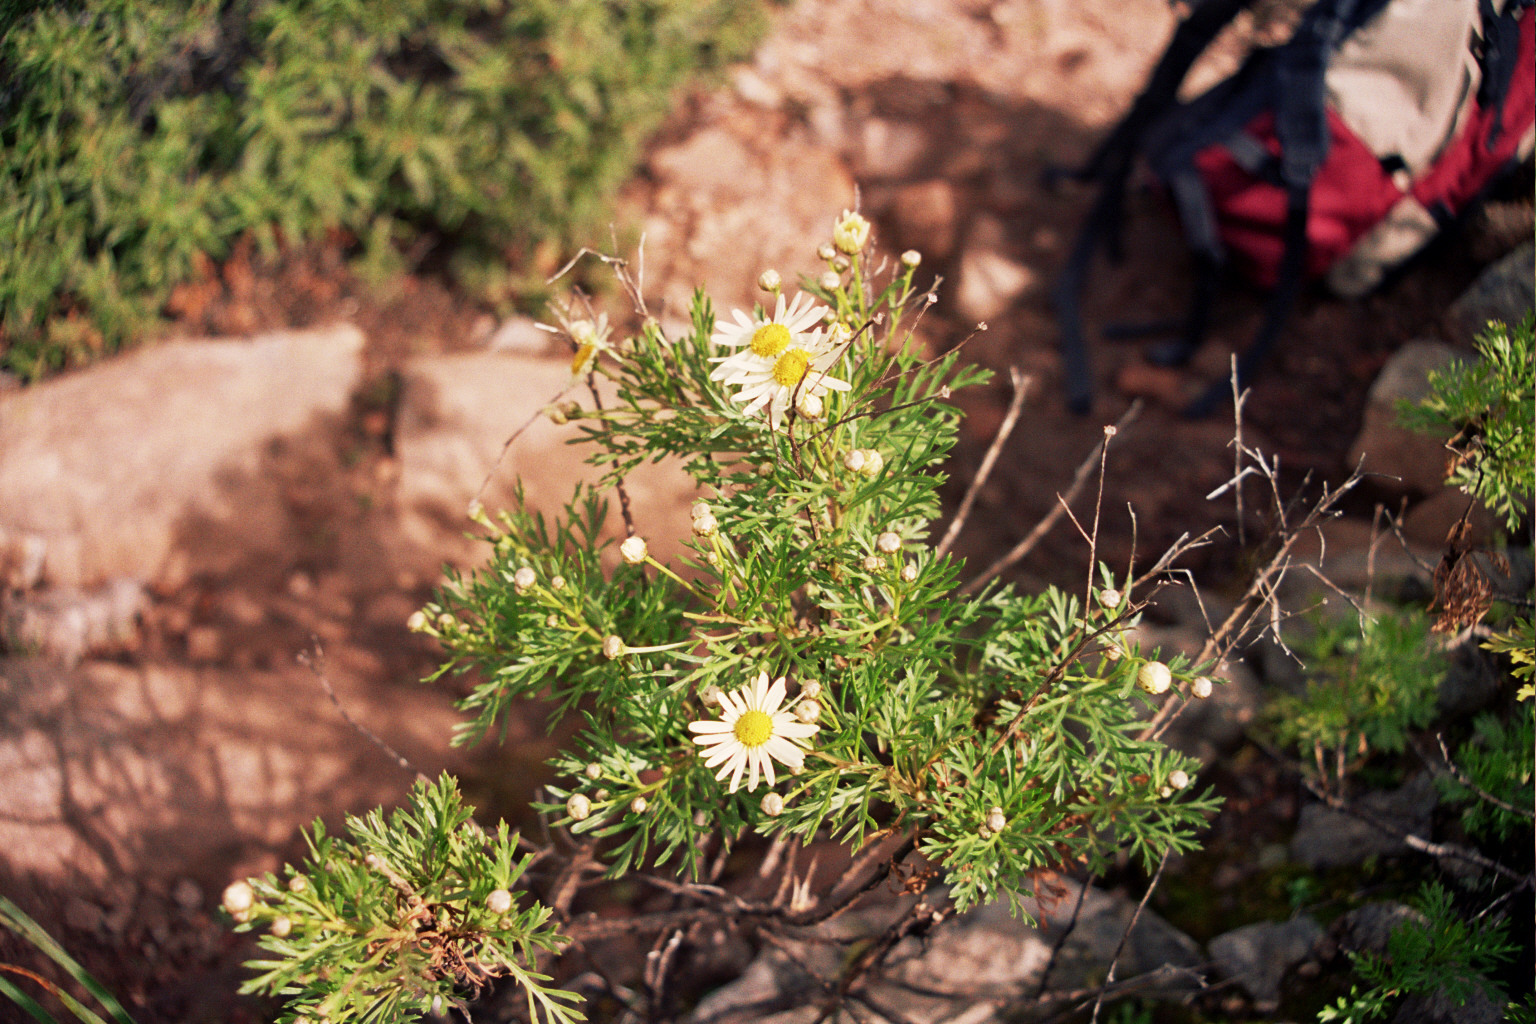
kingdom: Plantae
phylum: Tracheophyta
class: Magnoliopsida
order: Asterales
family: Asteraceae
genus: Argyranthemum
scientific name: Argyranthemum callichrysum
